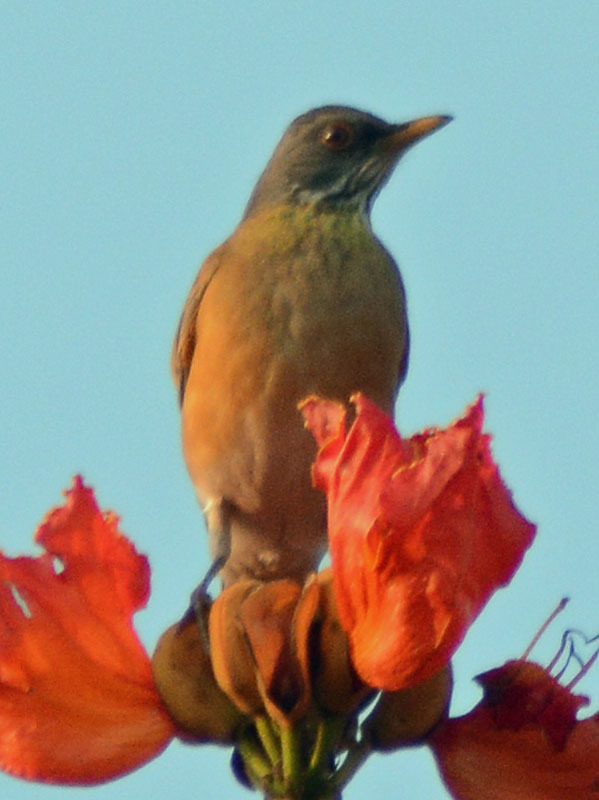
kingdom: Animalia
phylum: Chordata
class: Aves
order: Passeriformes
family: Turdidae
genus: Turdus
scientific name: Turdus rufopalliatus
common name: Rufous-backed robin
